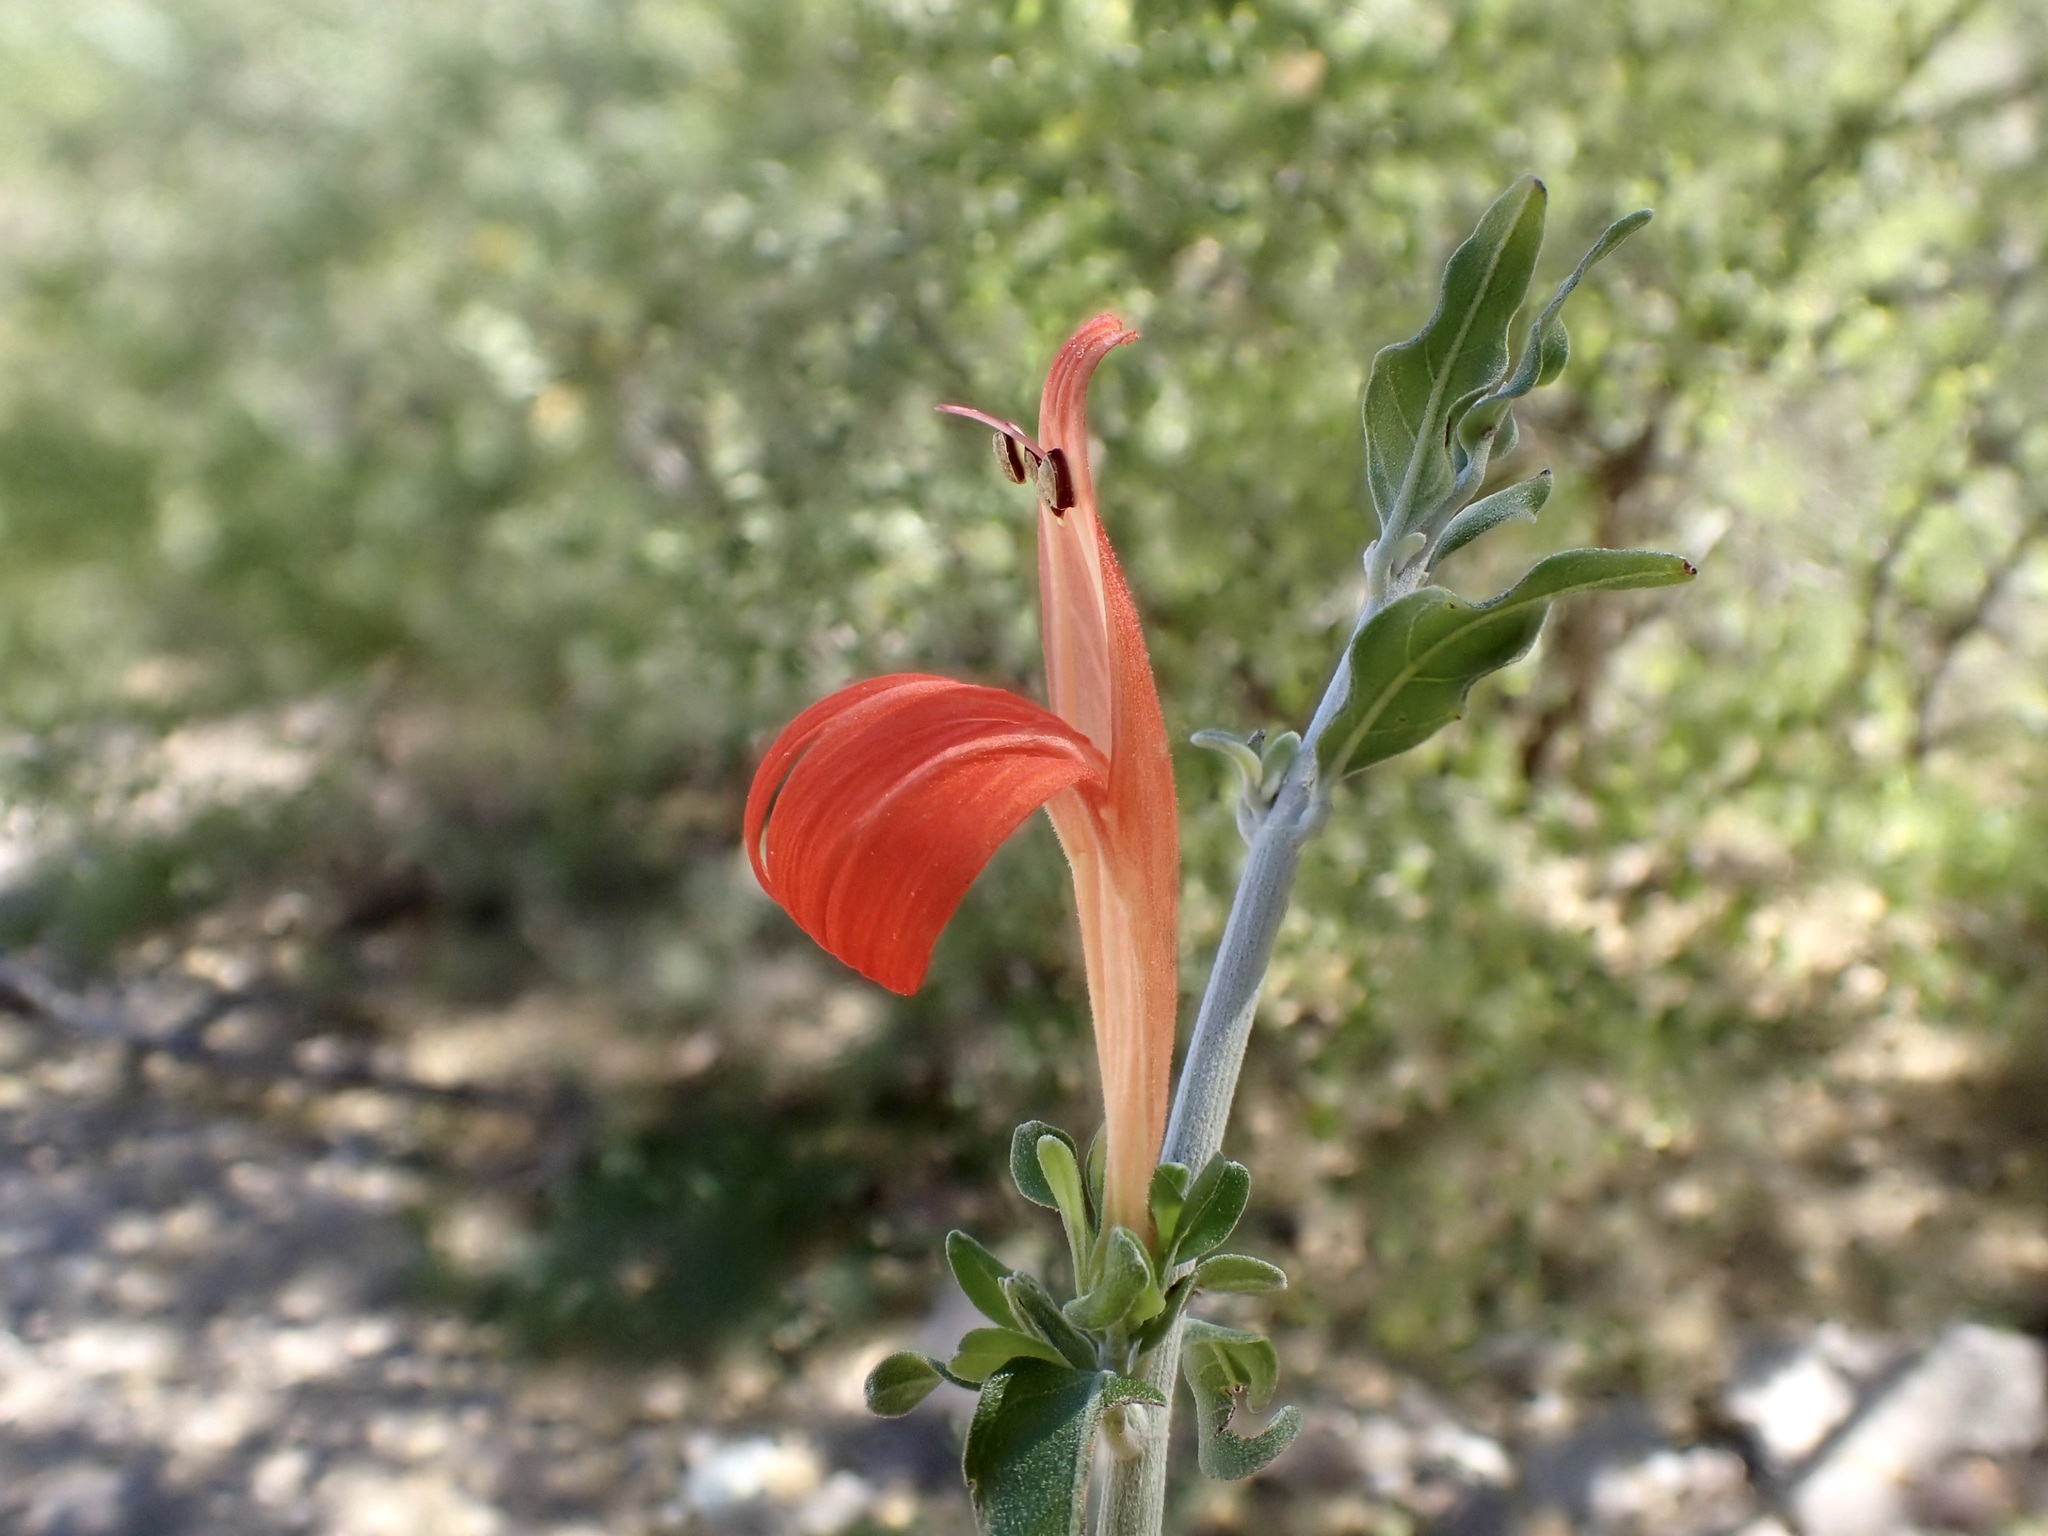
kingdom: Plantae
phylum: Tracheophyta
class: Magnoliopsida
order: Lamiales
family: Acanthaceae
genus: Justicia
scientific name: Justicia palmeri
